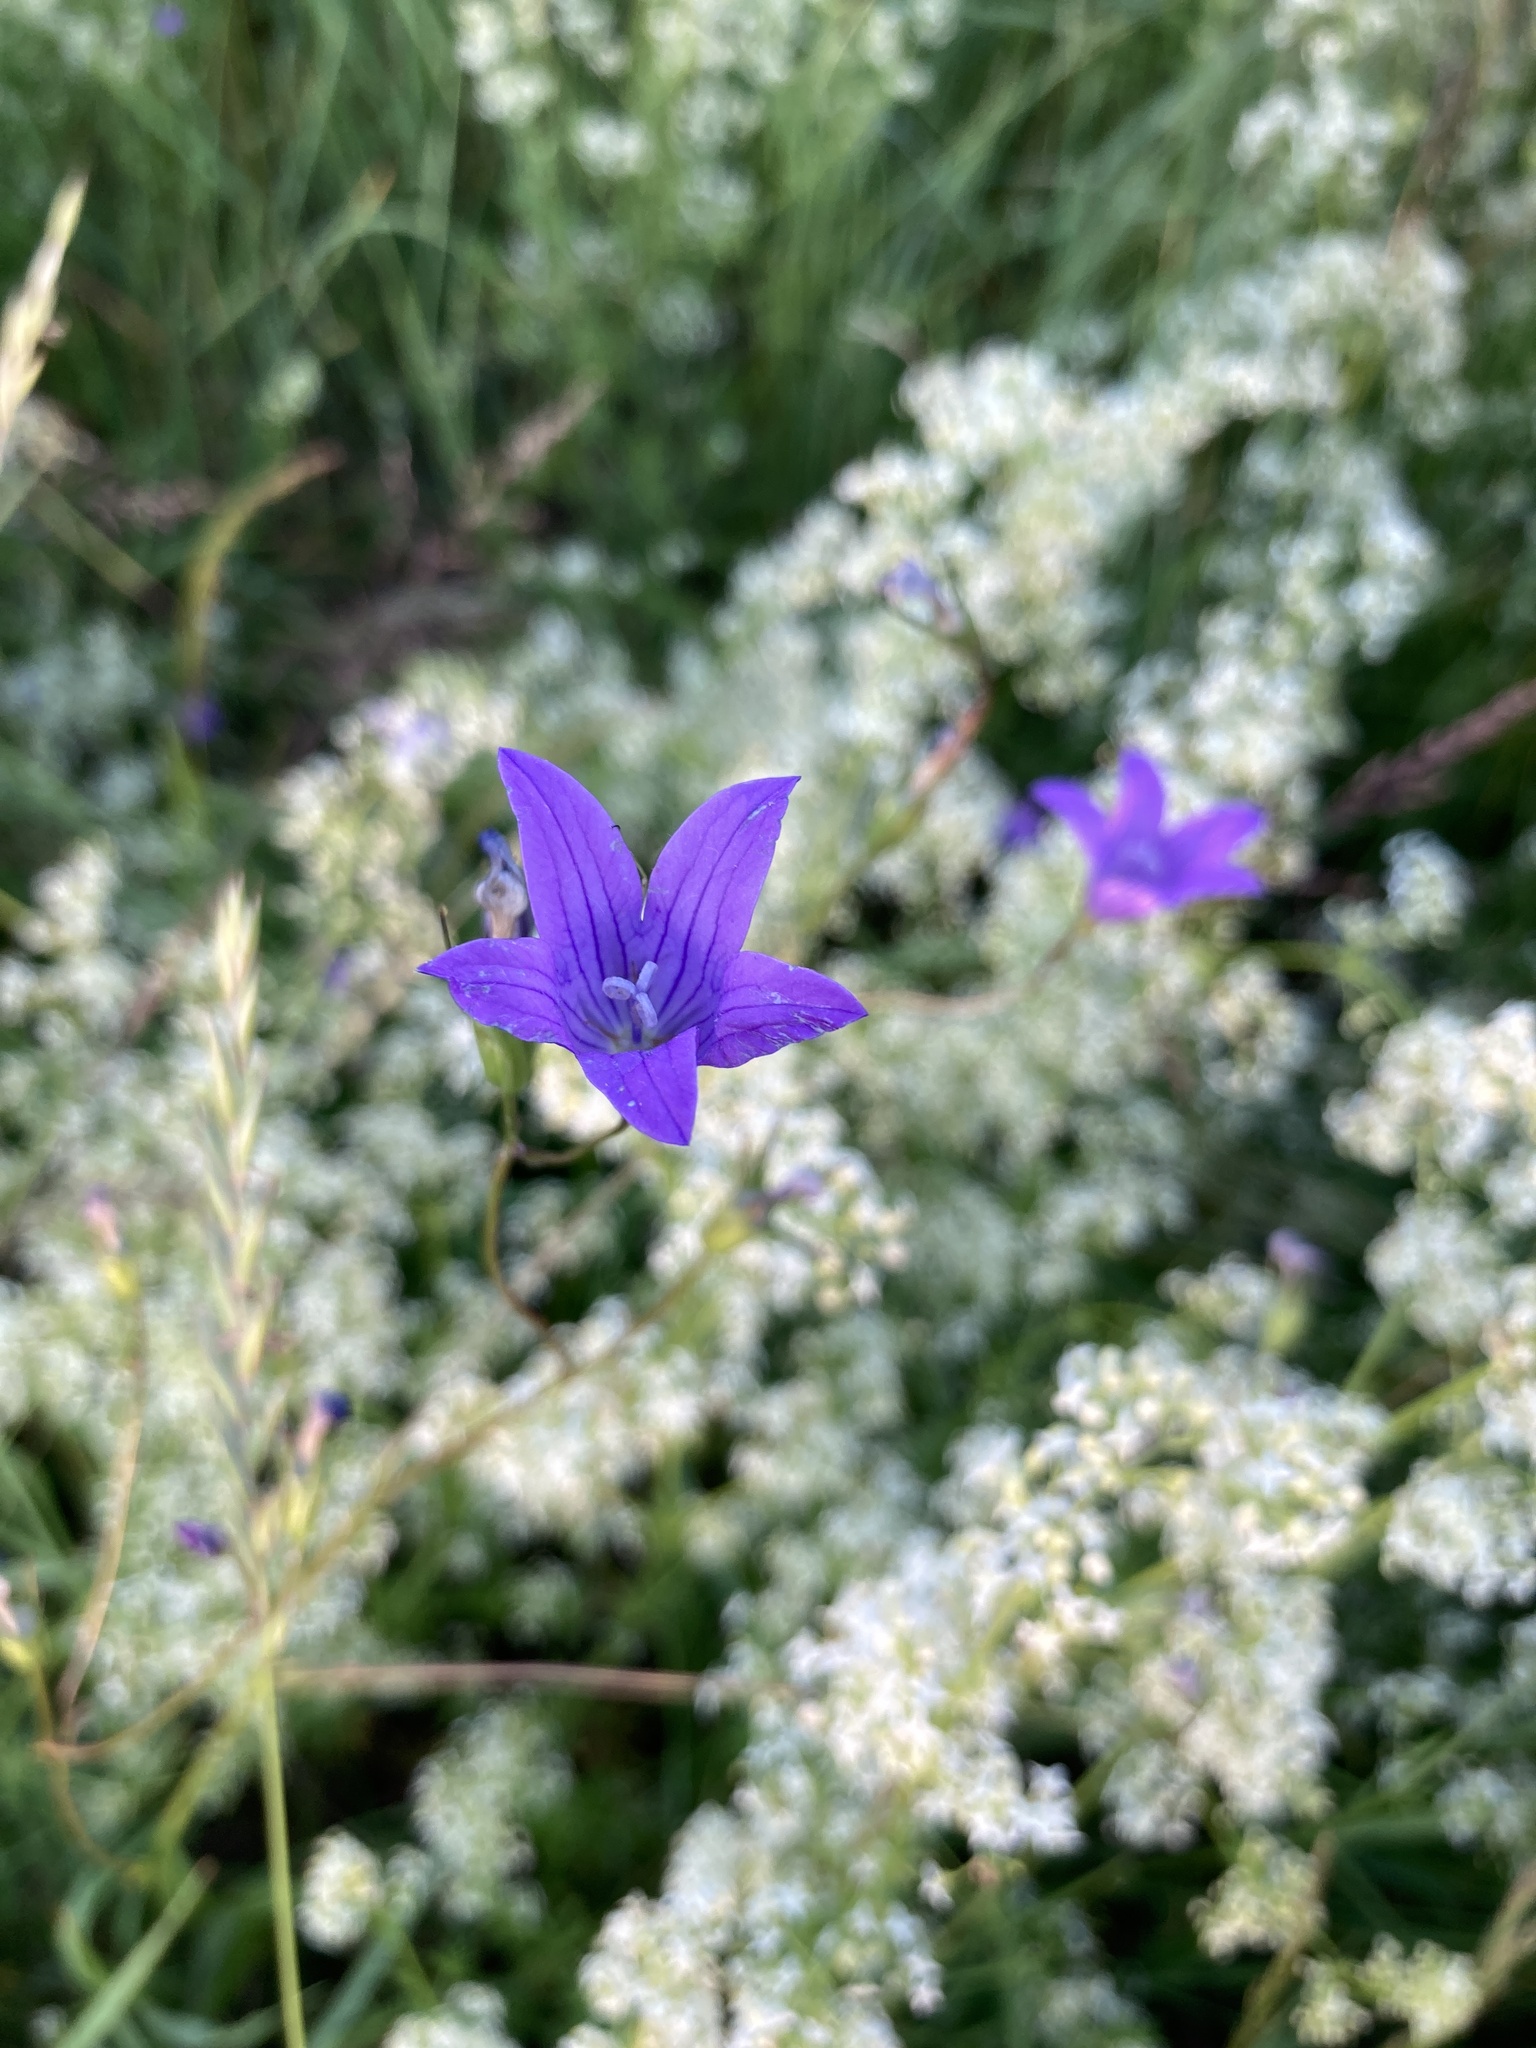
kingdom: Plantae
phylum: Tracheophyta
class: Magnoliopsida
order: Asterales
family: Campanulaceae
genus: Campanula
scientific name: Campanula patula
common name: Spreading bellflower
